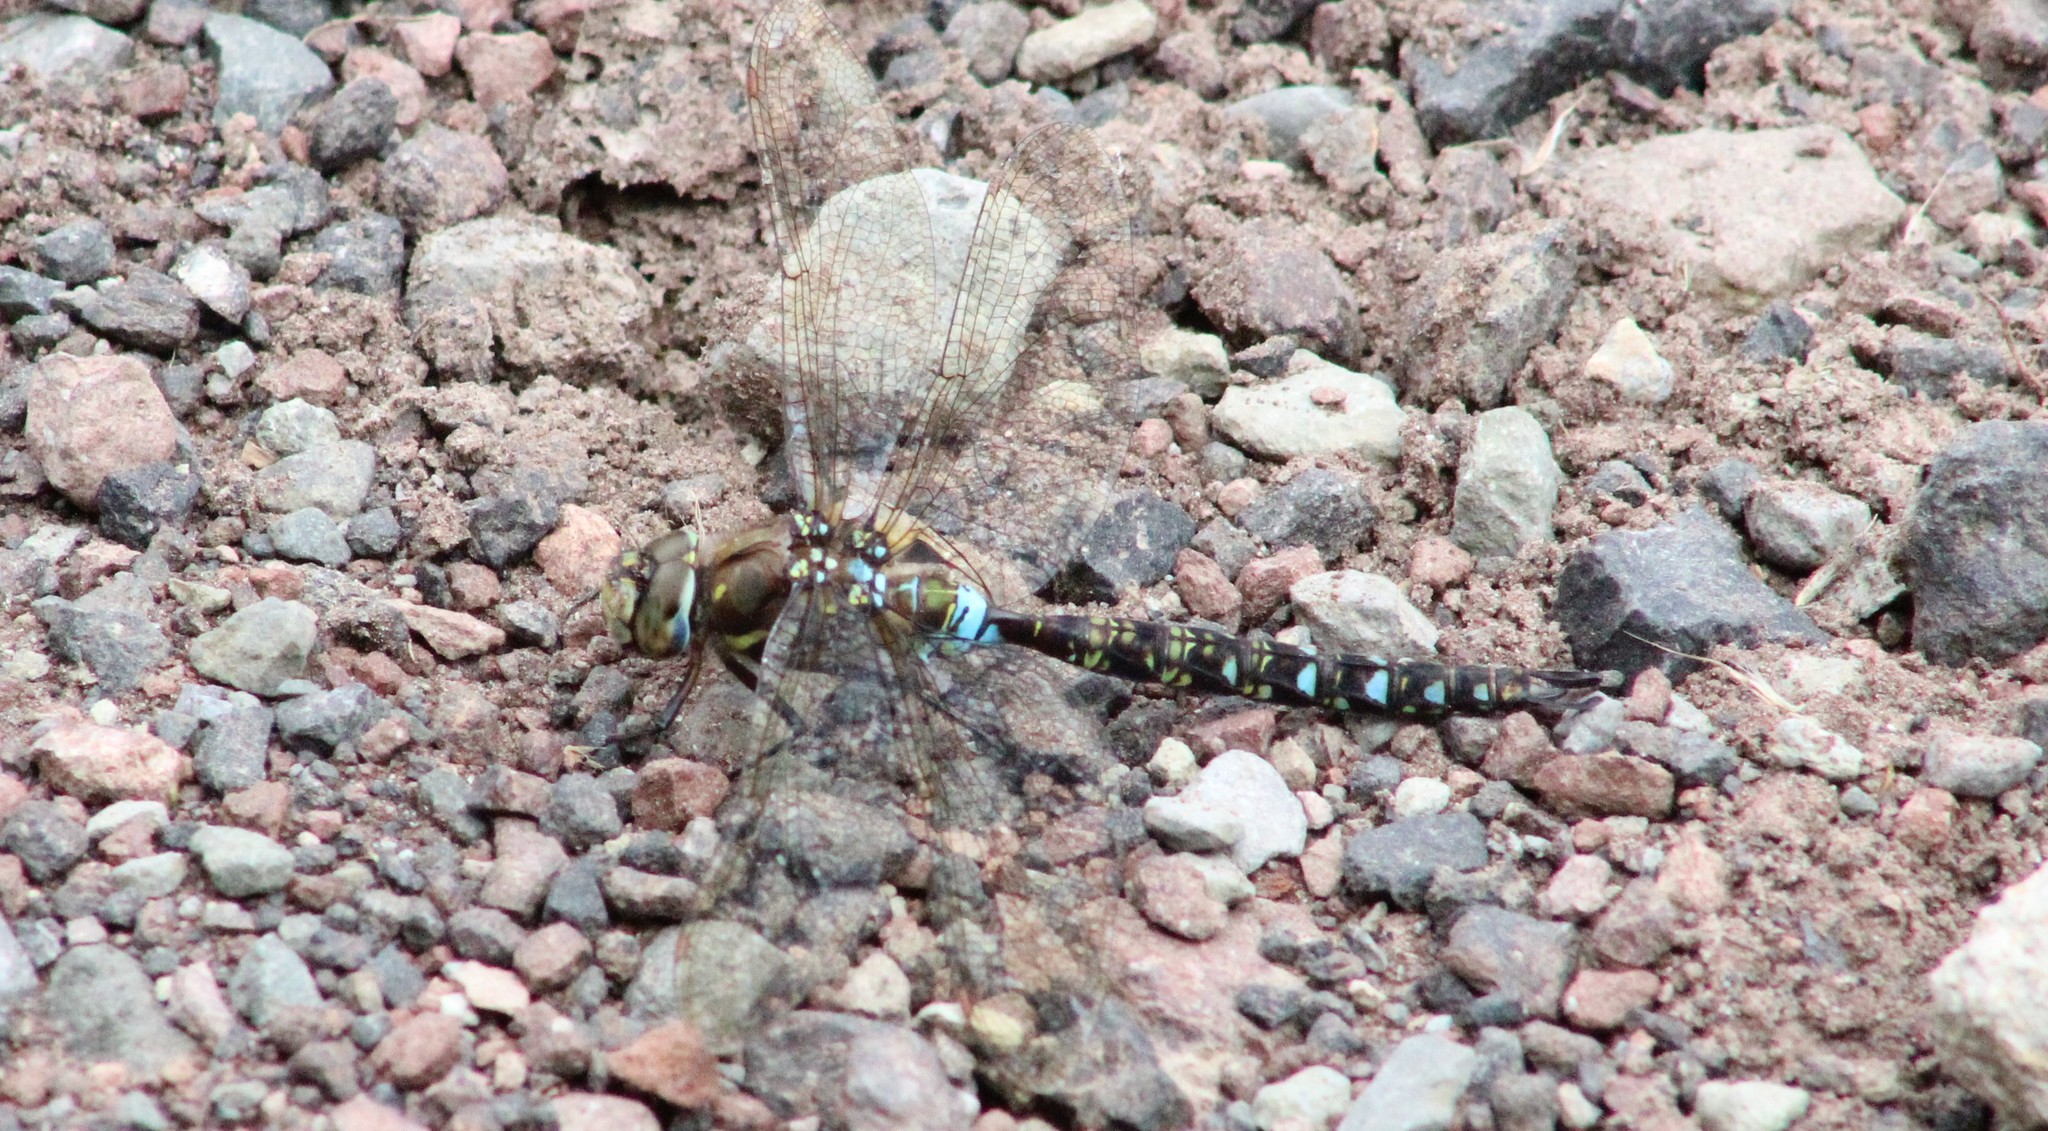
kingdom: Animalia
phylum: Arthropoda
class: Insecta
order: Odonata
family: Aeshnidae
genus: Rhionaeschna
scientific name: Rhionaeschna marchali
